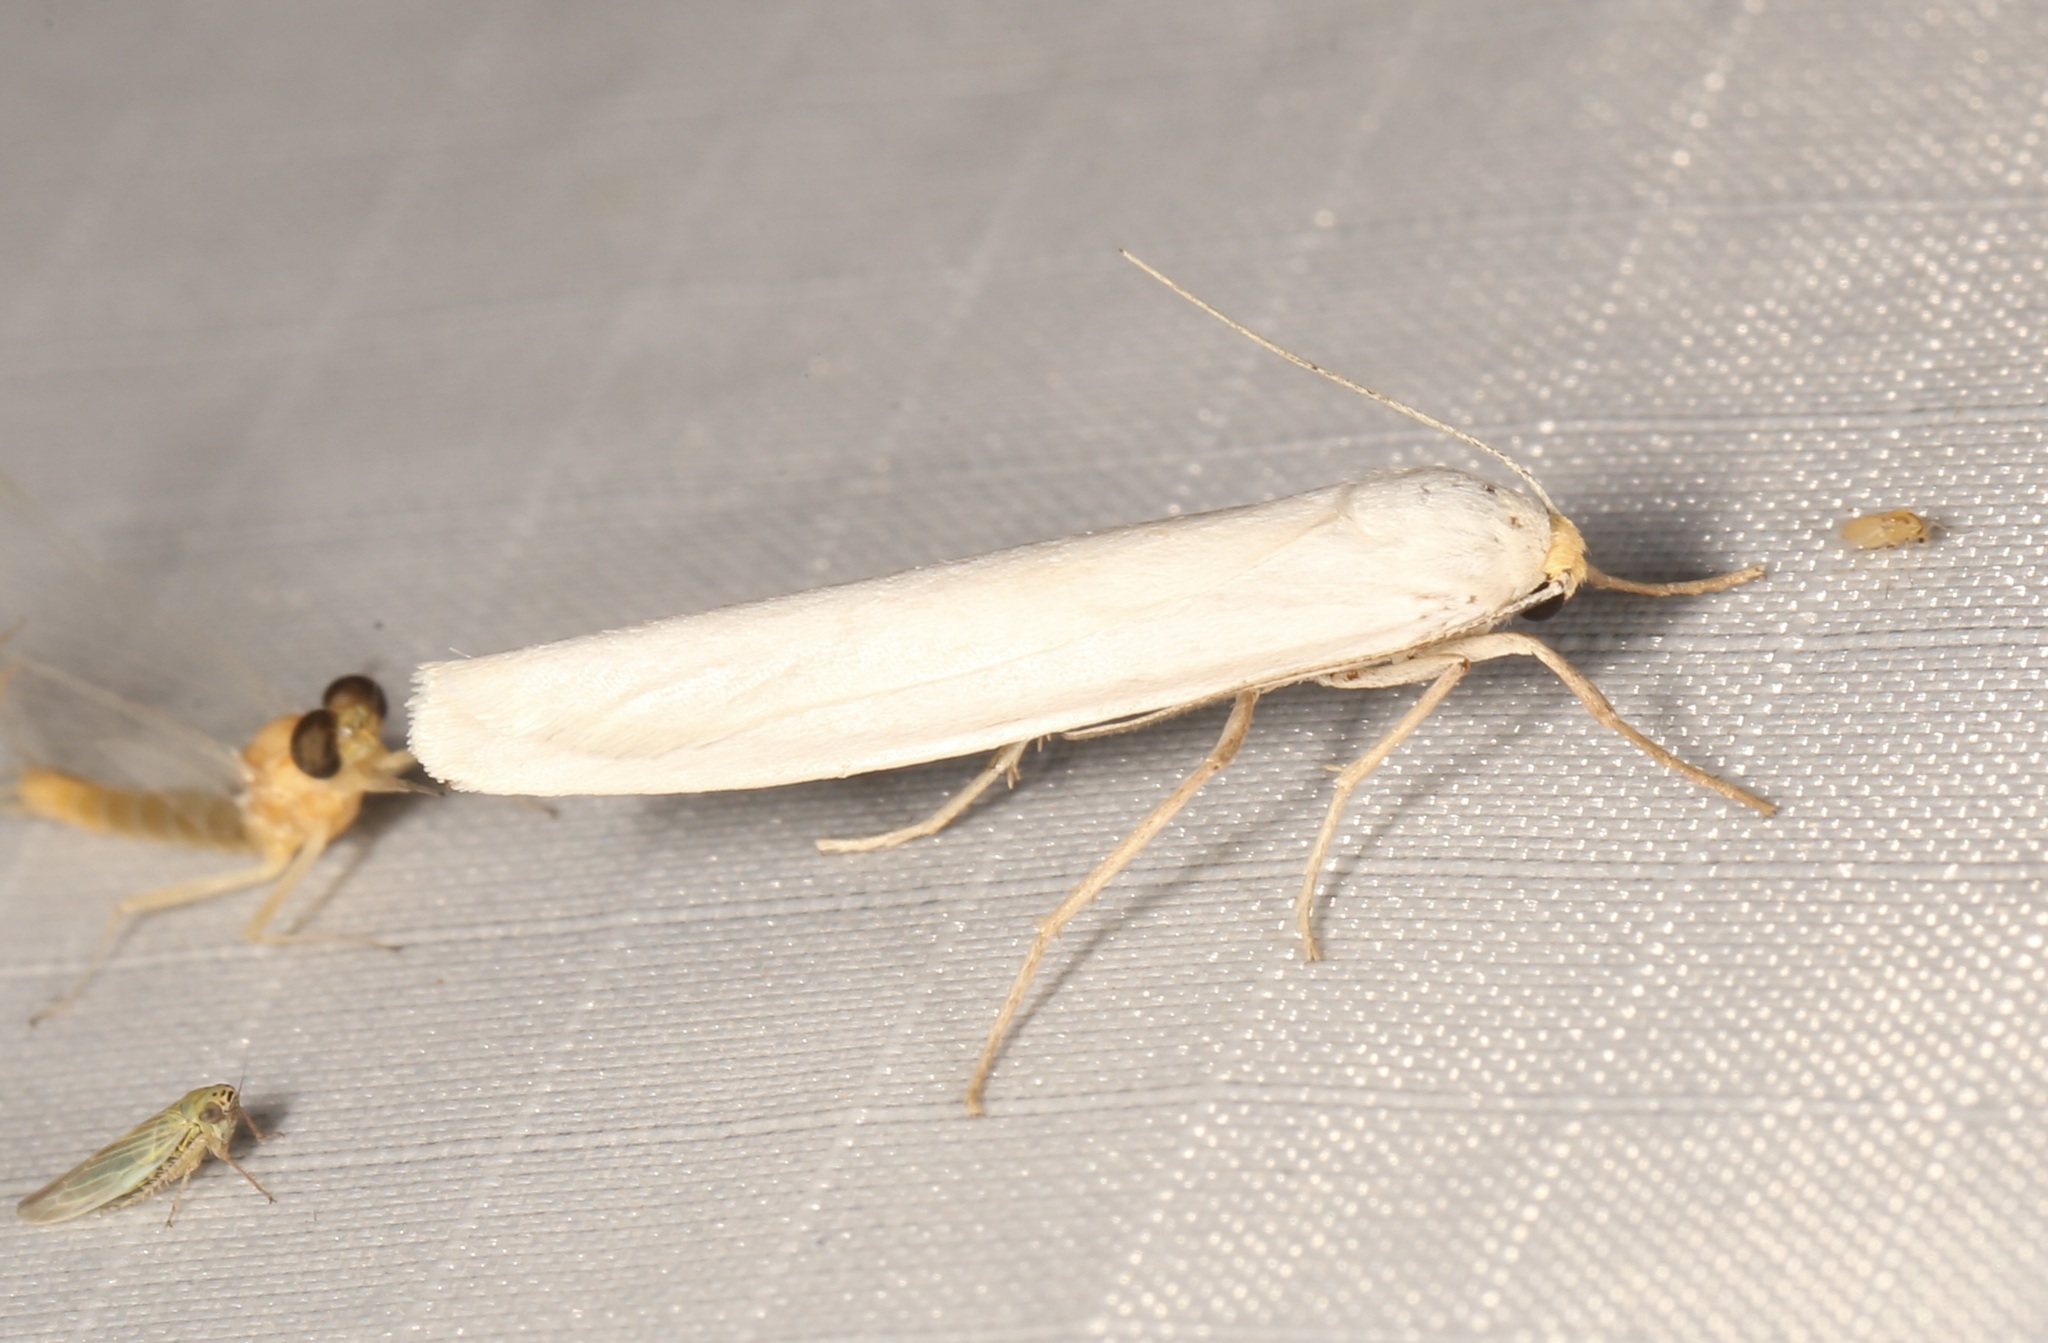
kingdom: Animalia
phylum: Arthropoda
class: Insecta
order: Lepidoptera
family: Erebidae
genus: Crambidia
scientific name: Crambidia cephalica
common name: Yellow-headed lichen moth
